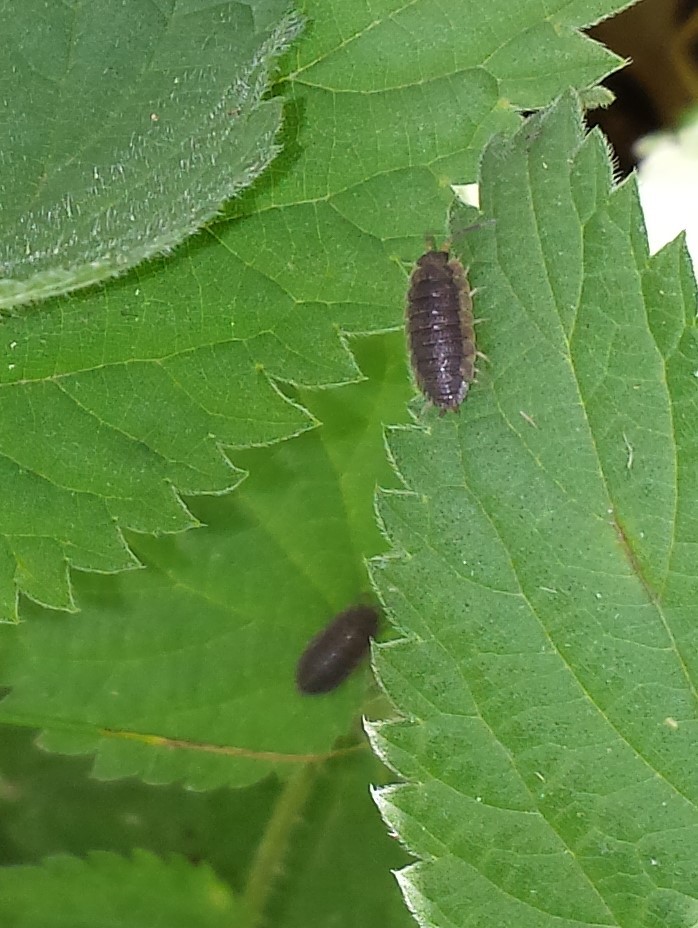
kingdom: Animalia
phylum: Arthropoda
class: Malacostraca
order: Isopoda
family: Porcellionidae
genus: Porcellio
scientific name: Porcellio scaber
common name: Common rough woodlouse
